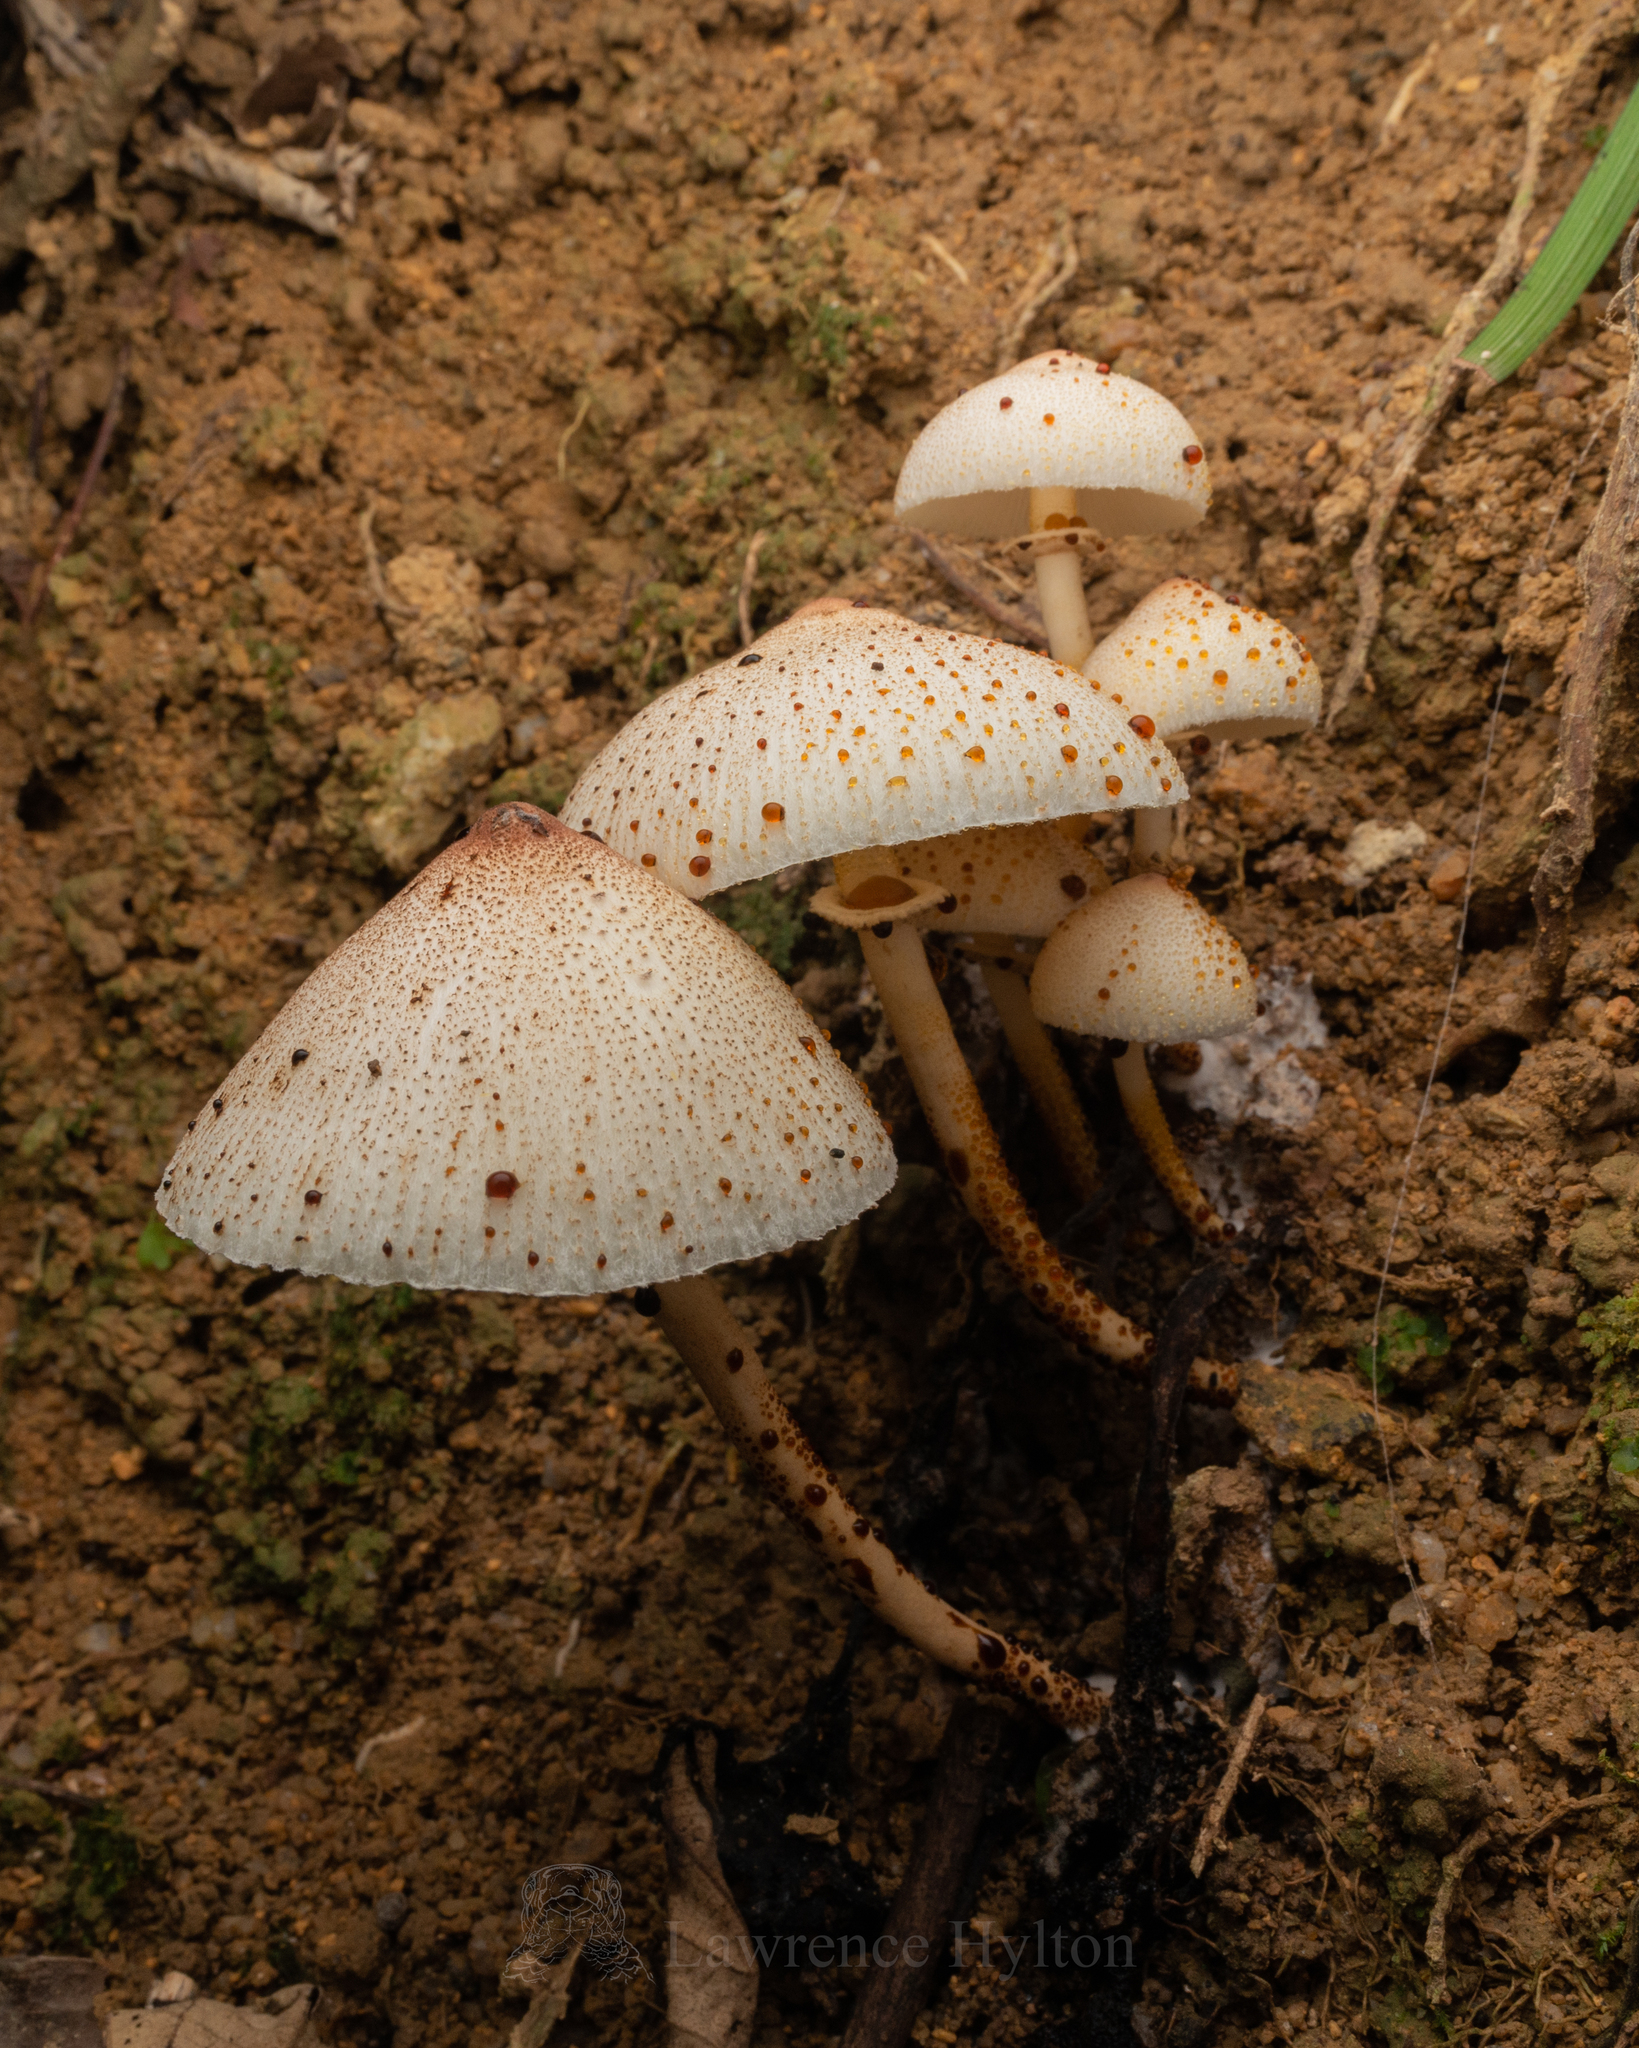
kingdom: Fungi
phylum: Basidiomycota
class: Agaricomycetes
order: Agaricales
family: Agaricaceae
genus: Leucoagaricus
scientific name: Leucoagaricus lacrymans
